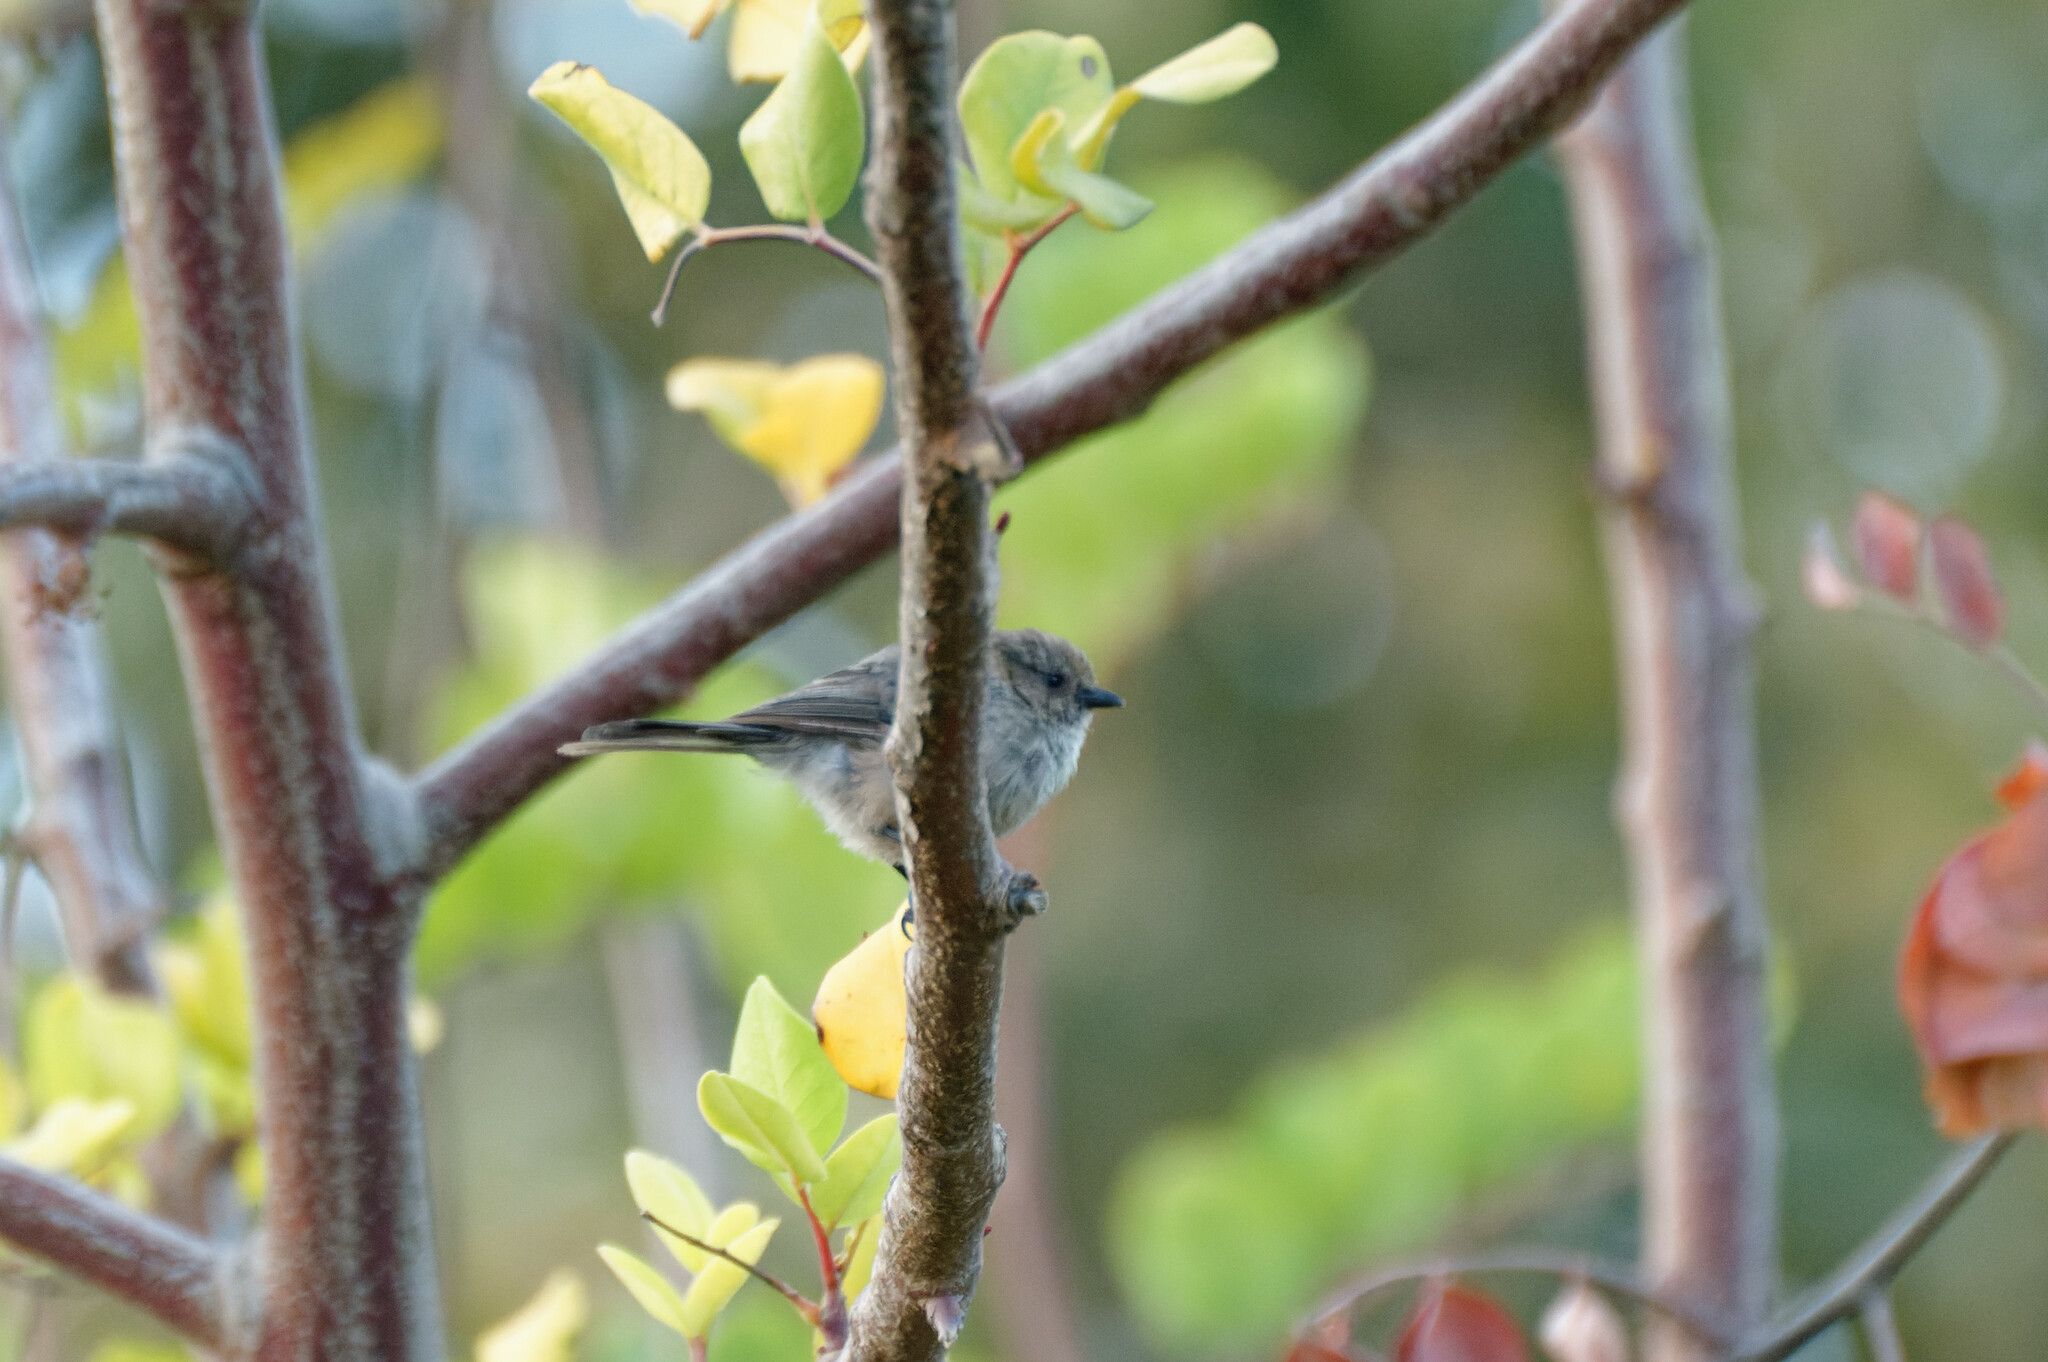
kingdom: Animalia
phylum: Chordata
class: Aves
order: Passeriformes
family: Aegithalidae
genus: Psaltriparus
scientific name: Psaltriparus minimus
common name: American bushtit
